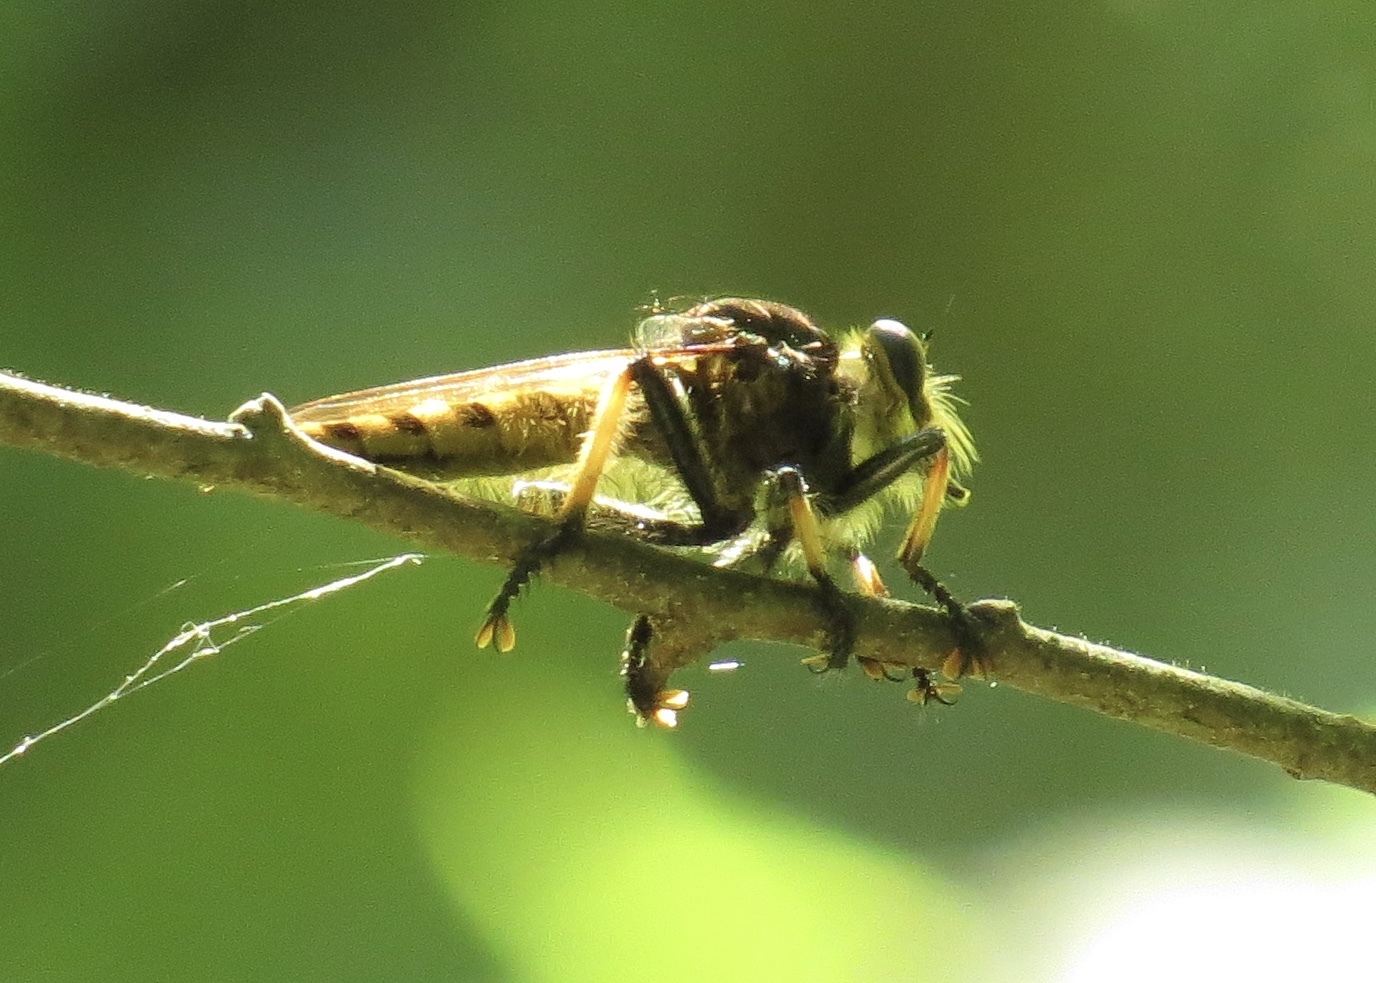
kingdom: Animalia
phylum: Arthropoda
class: Insecta
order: Diptera
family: Asilidae
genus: Promachus
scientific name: Promachus rufipes
